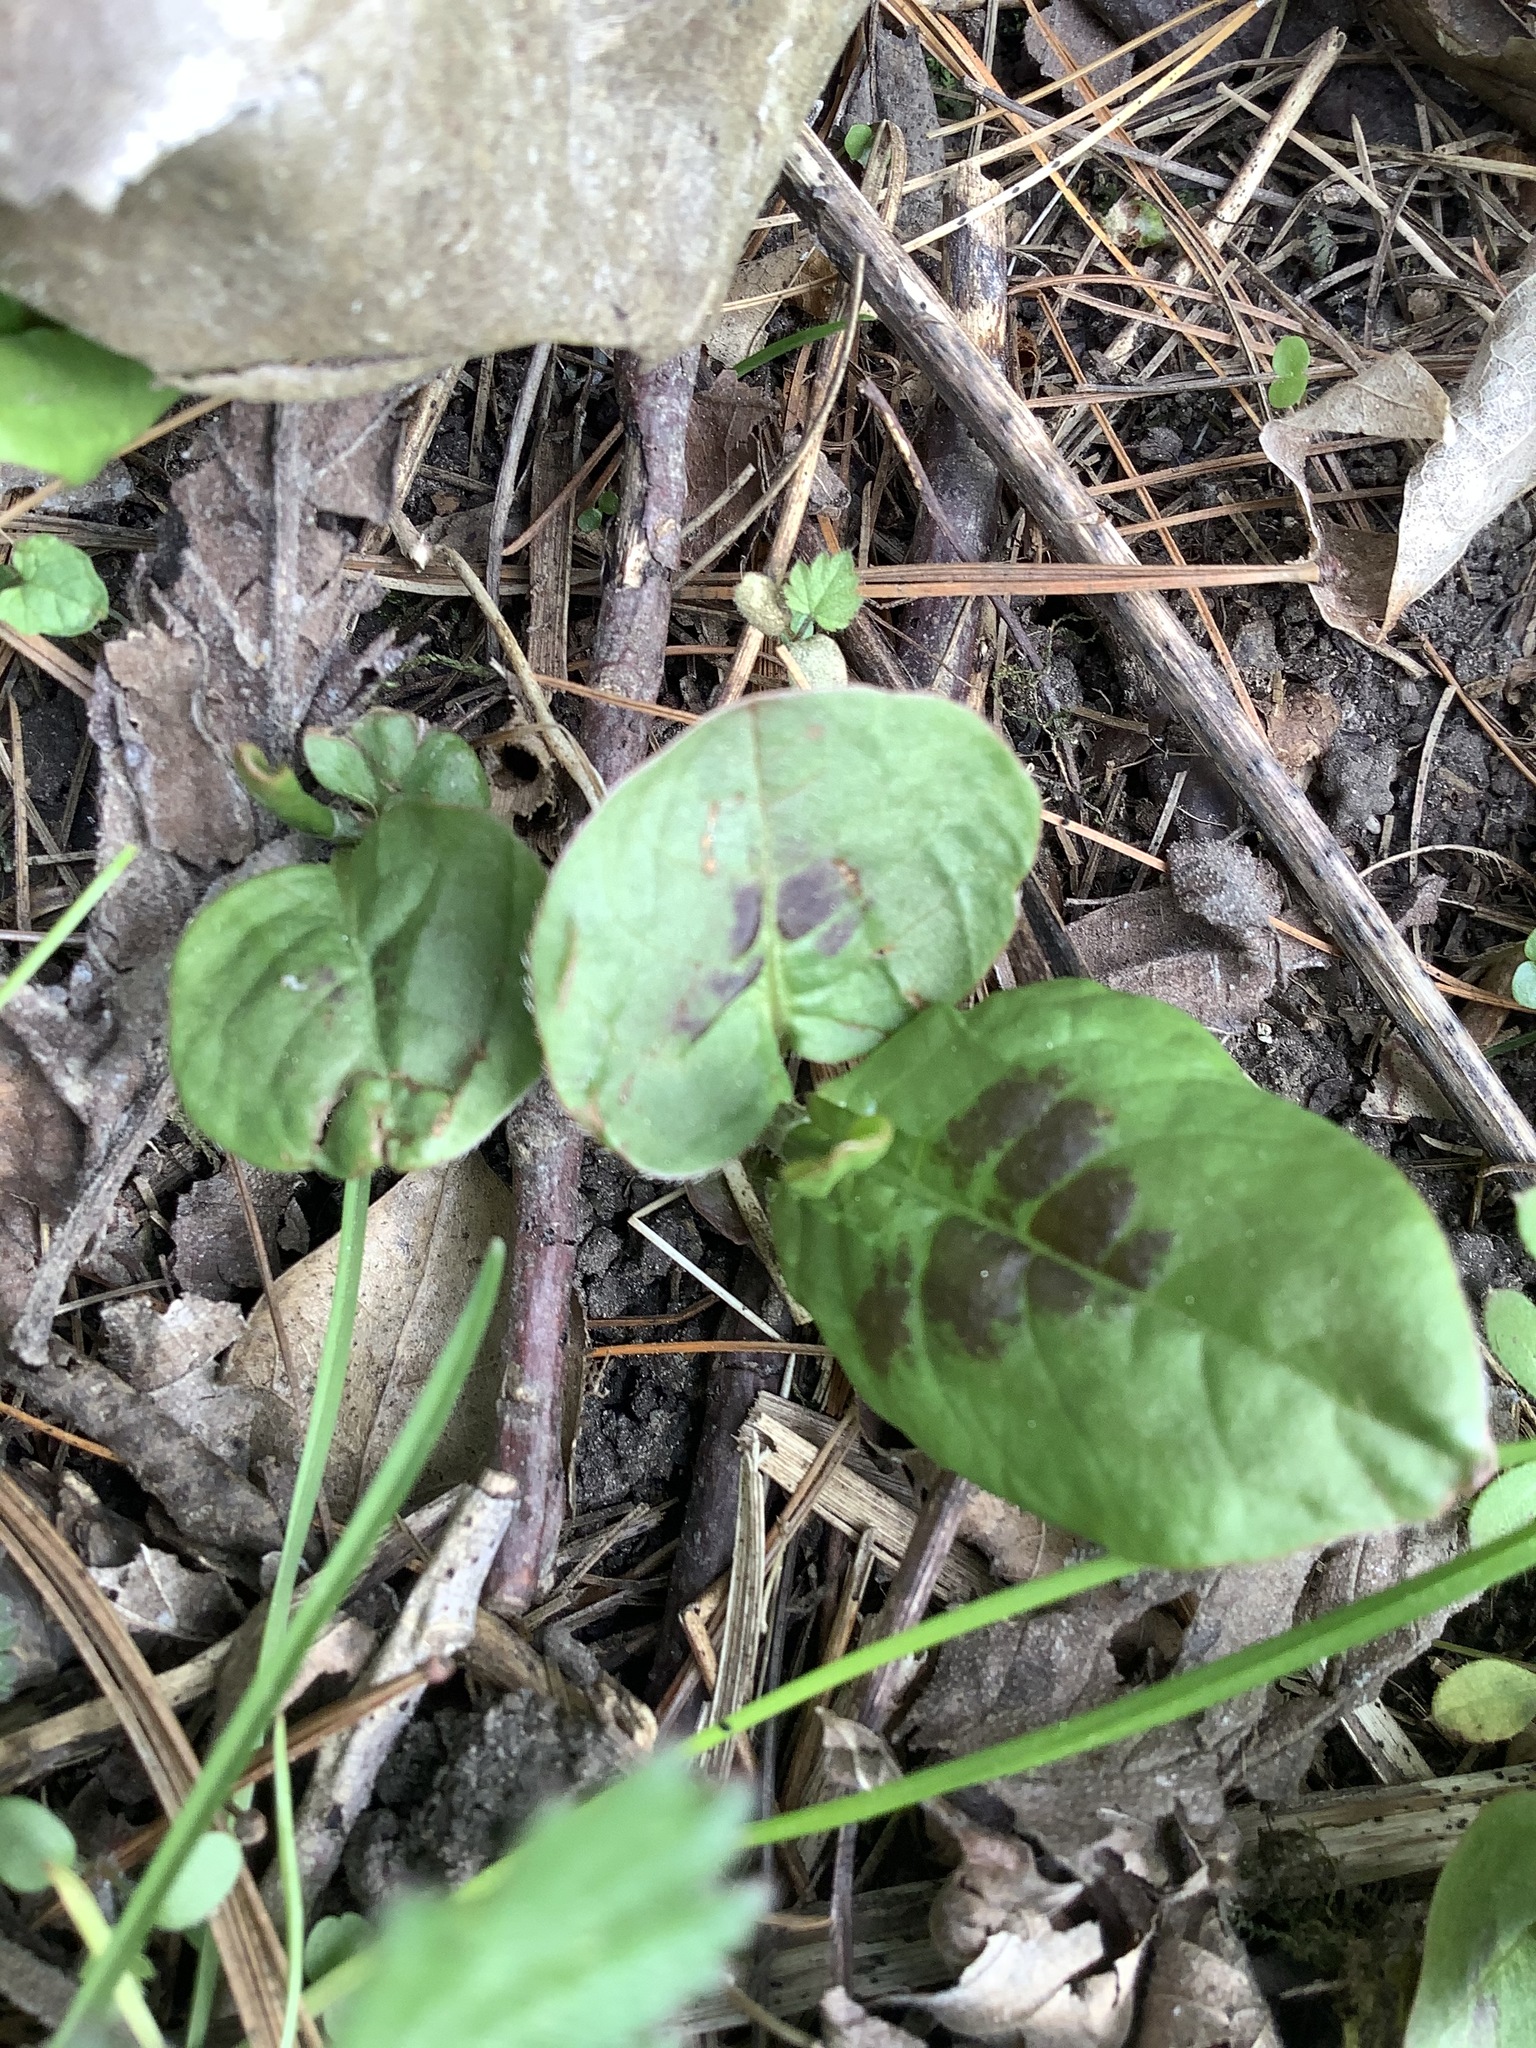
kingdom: Plantae
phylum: Tracheophyta
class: Magnoliopsida
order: Caryophyllales
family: Polygonaceae
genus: Persicaria
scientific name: Persicaria virginiana
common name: Jumpseed
